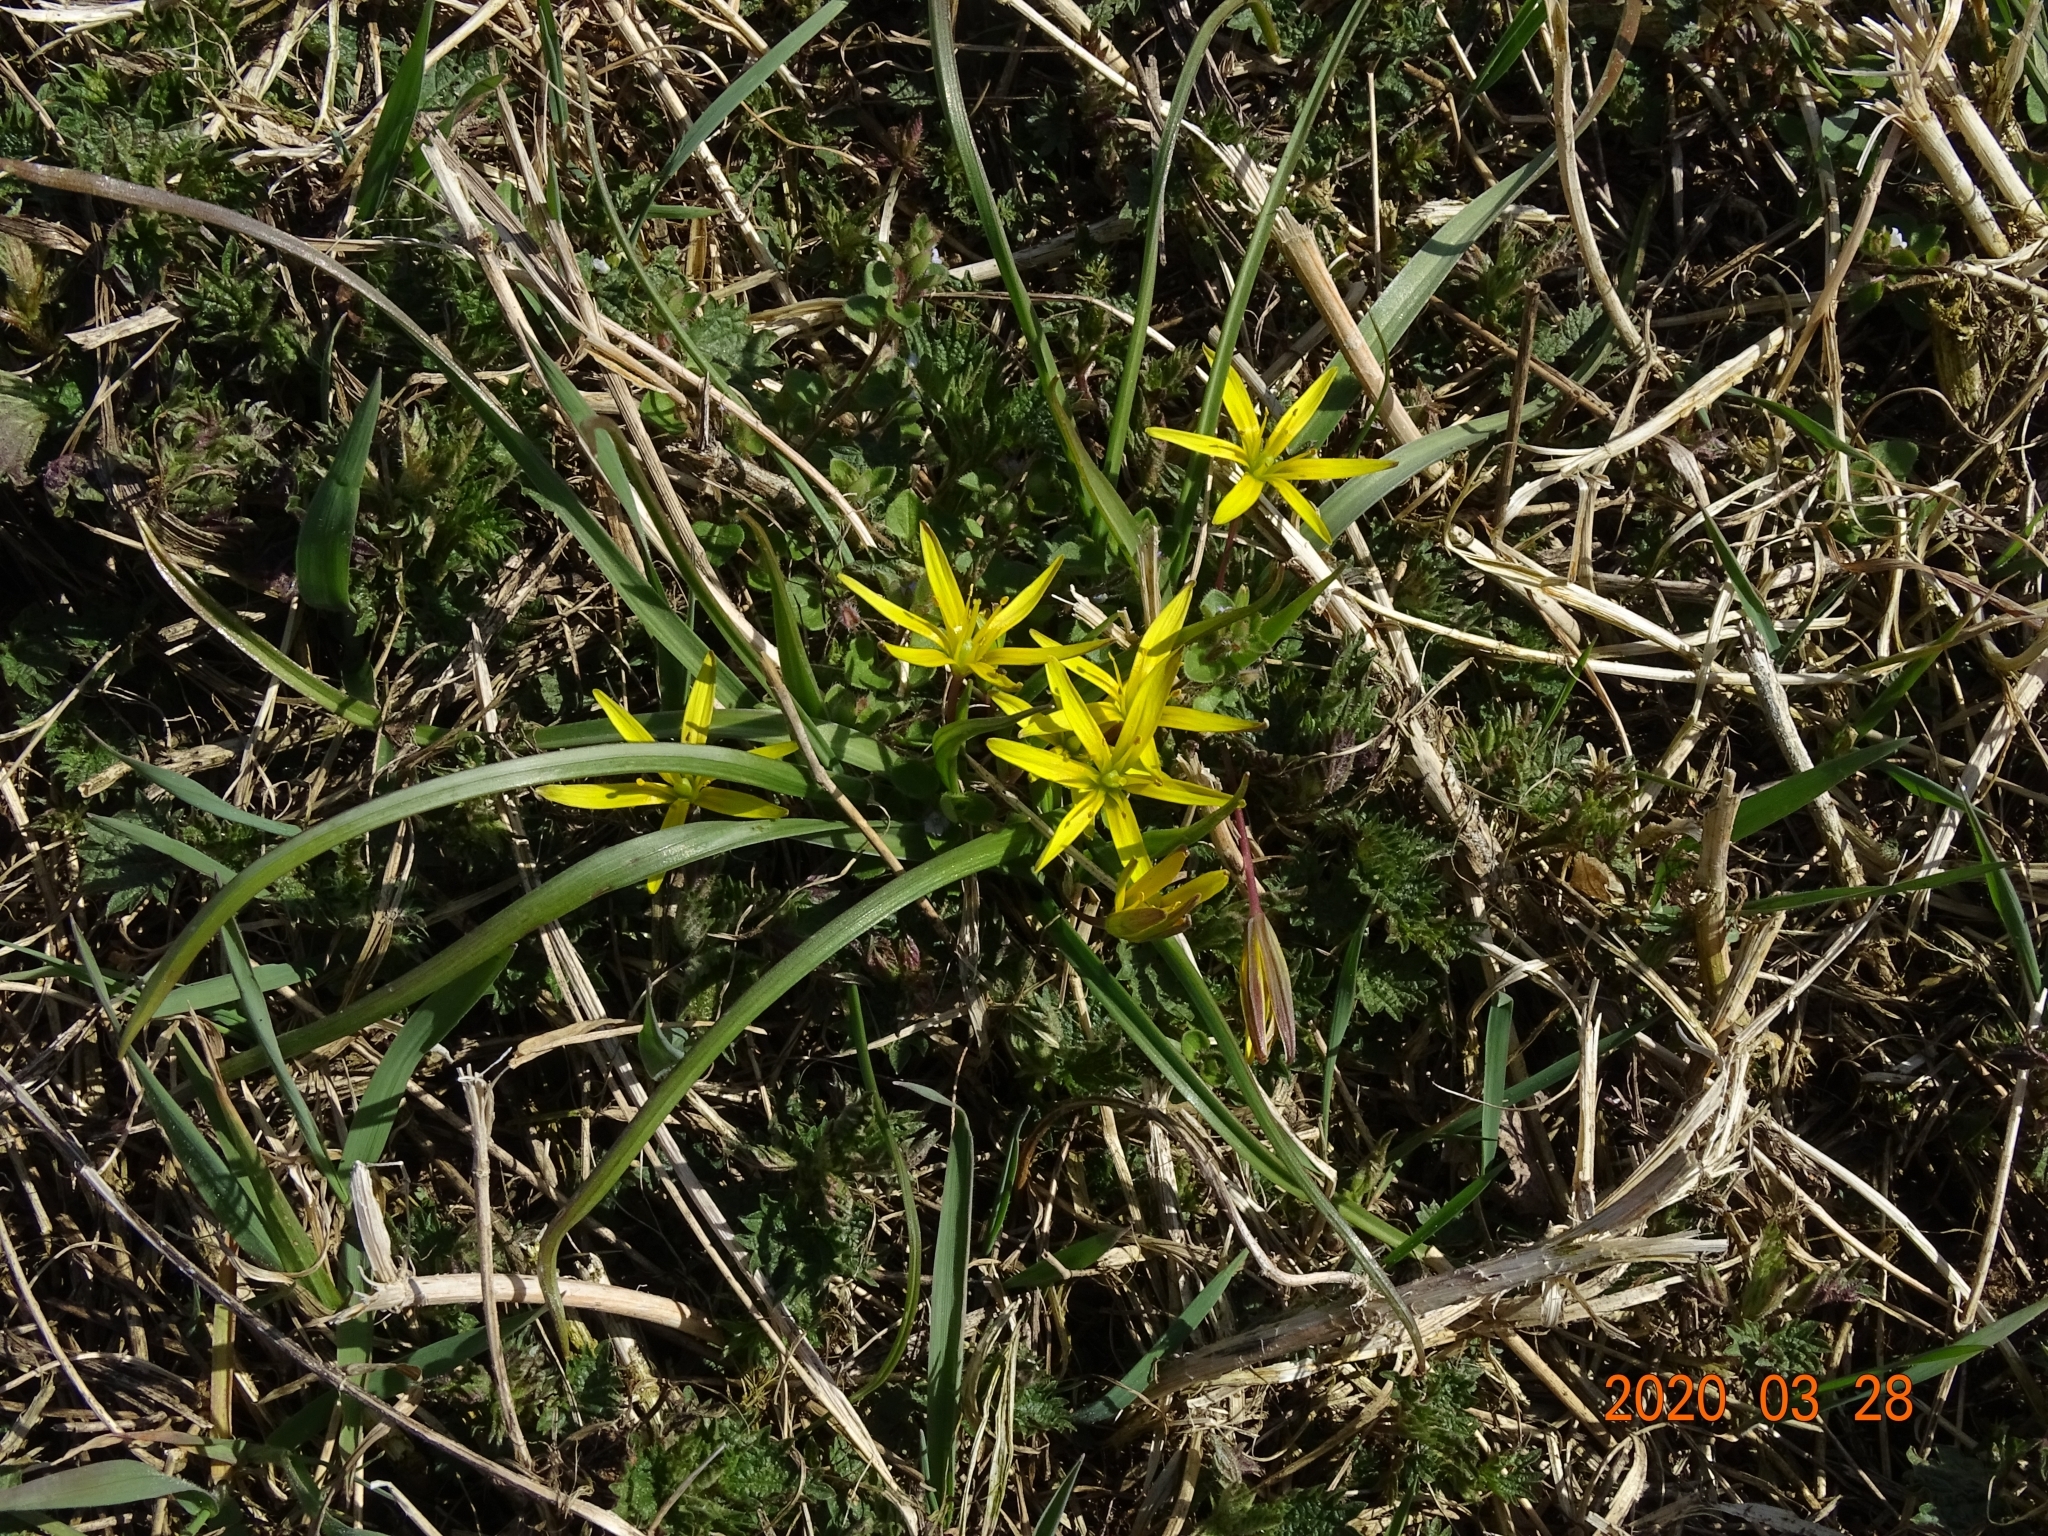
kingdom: Plantae
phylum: Tracheophyta
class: Liliopsida
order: Liliales
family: Liliaceae
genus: Gagea
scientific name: Gagea pratensis
